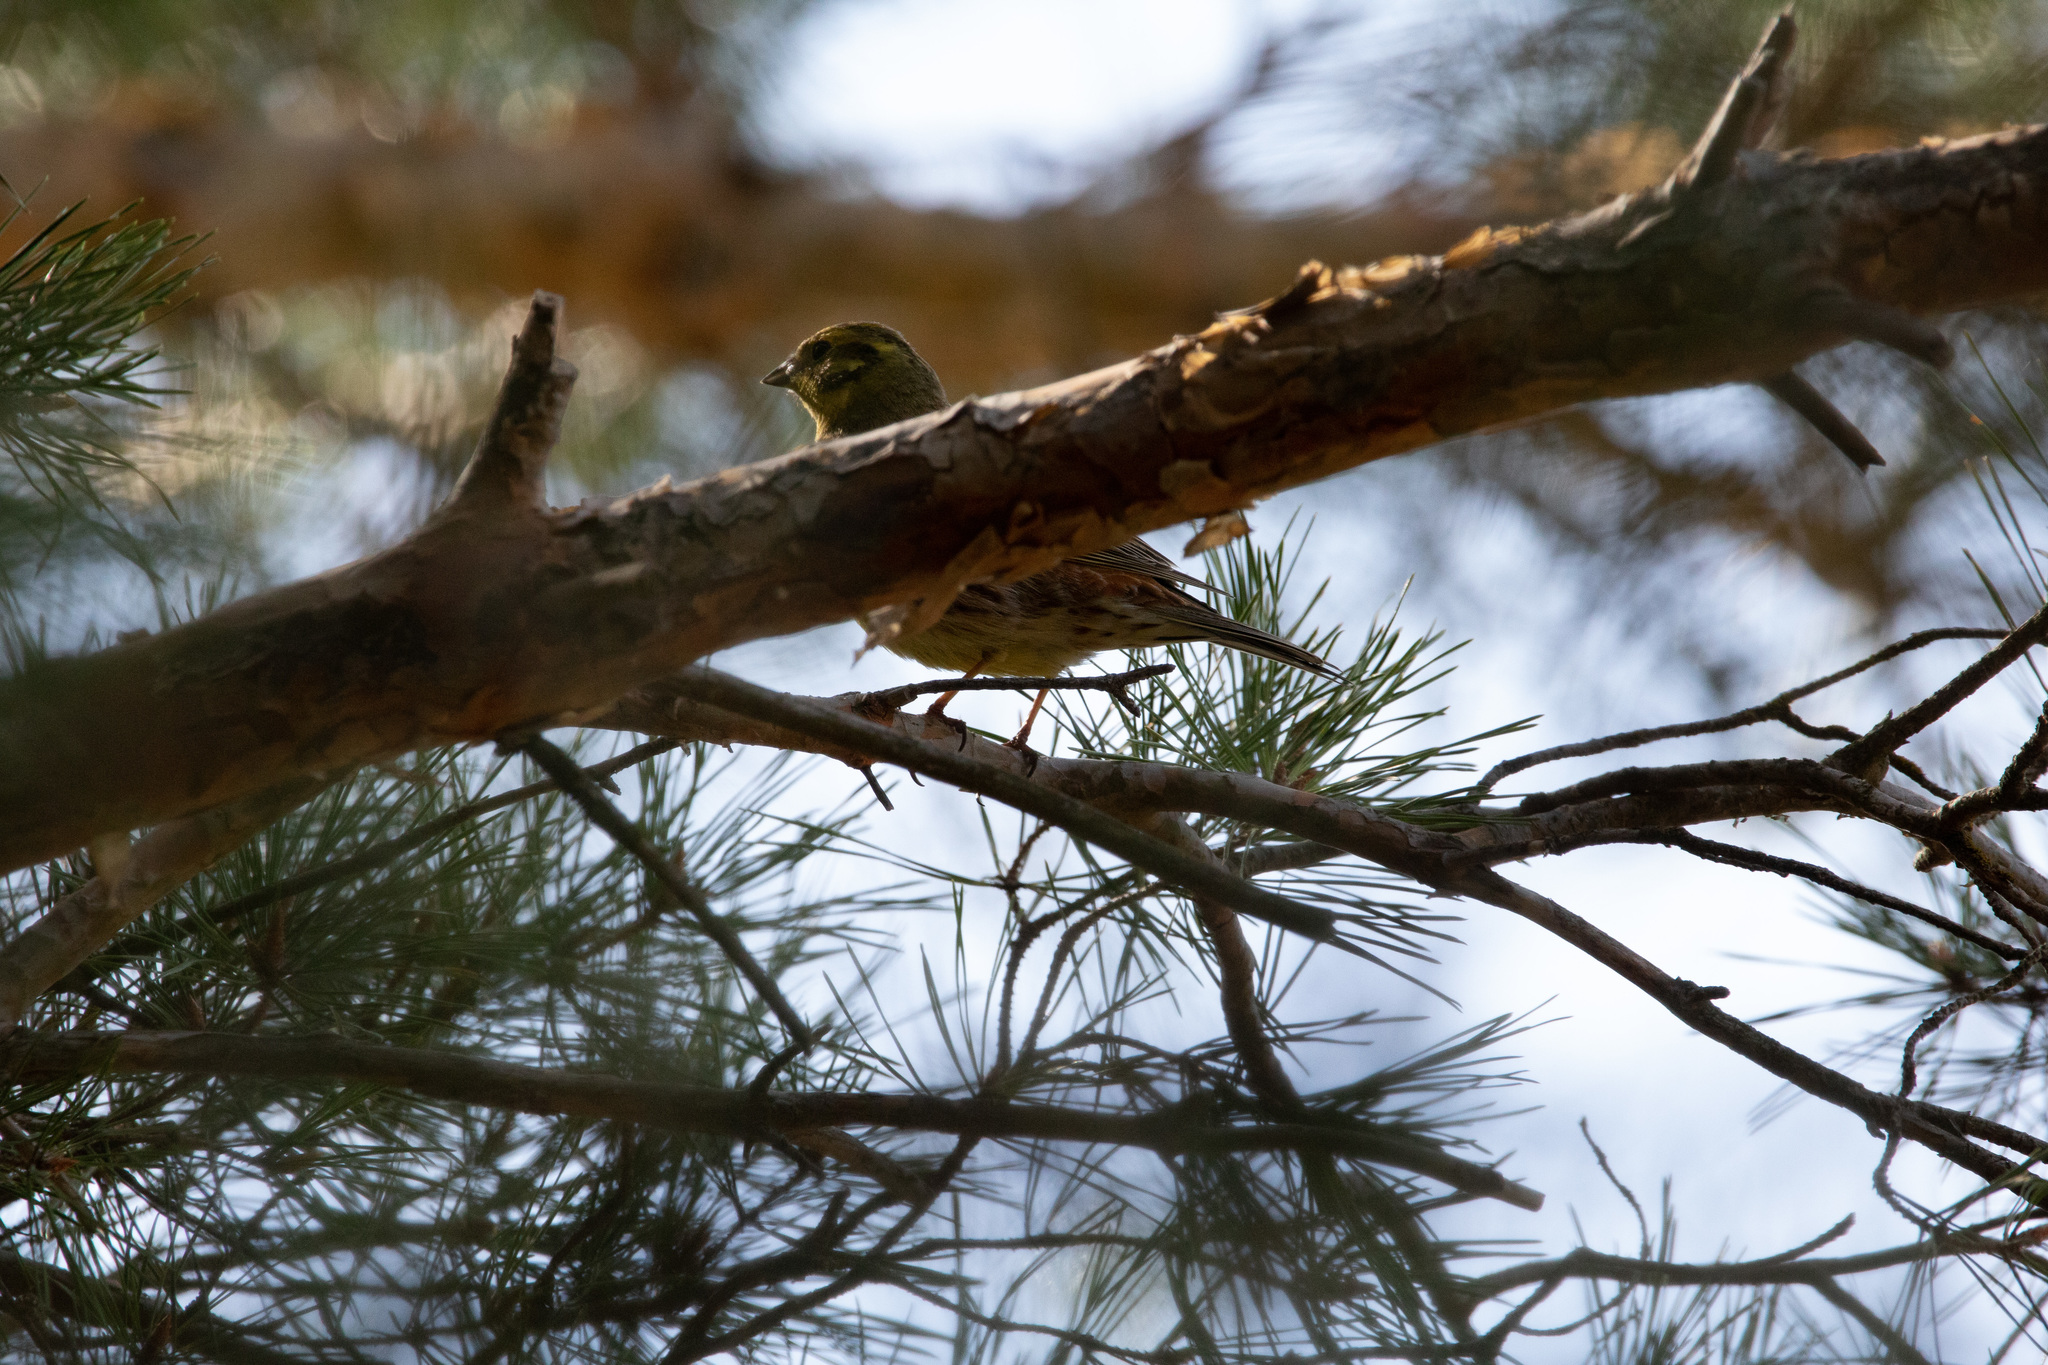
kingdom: Animalia
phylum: Chordata
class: Aves
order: Passeriformes
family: Emberizidae
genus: Emberiza
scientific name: Emberiza citrinella
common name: Yellowhammer
